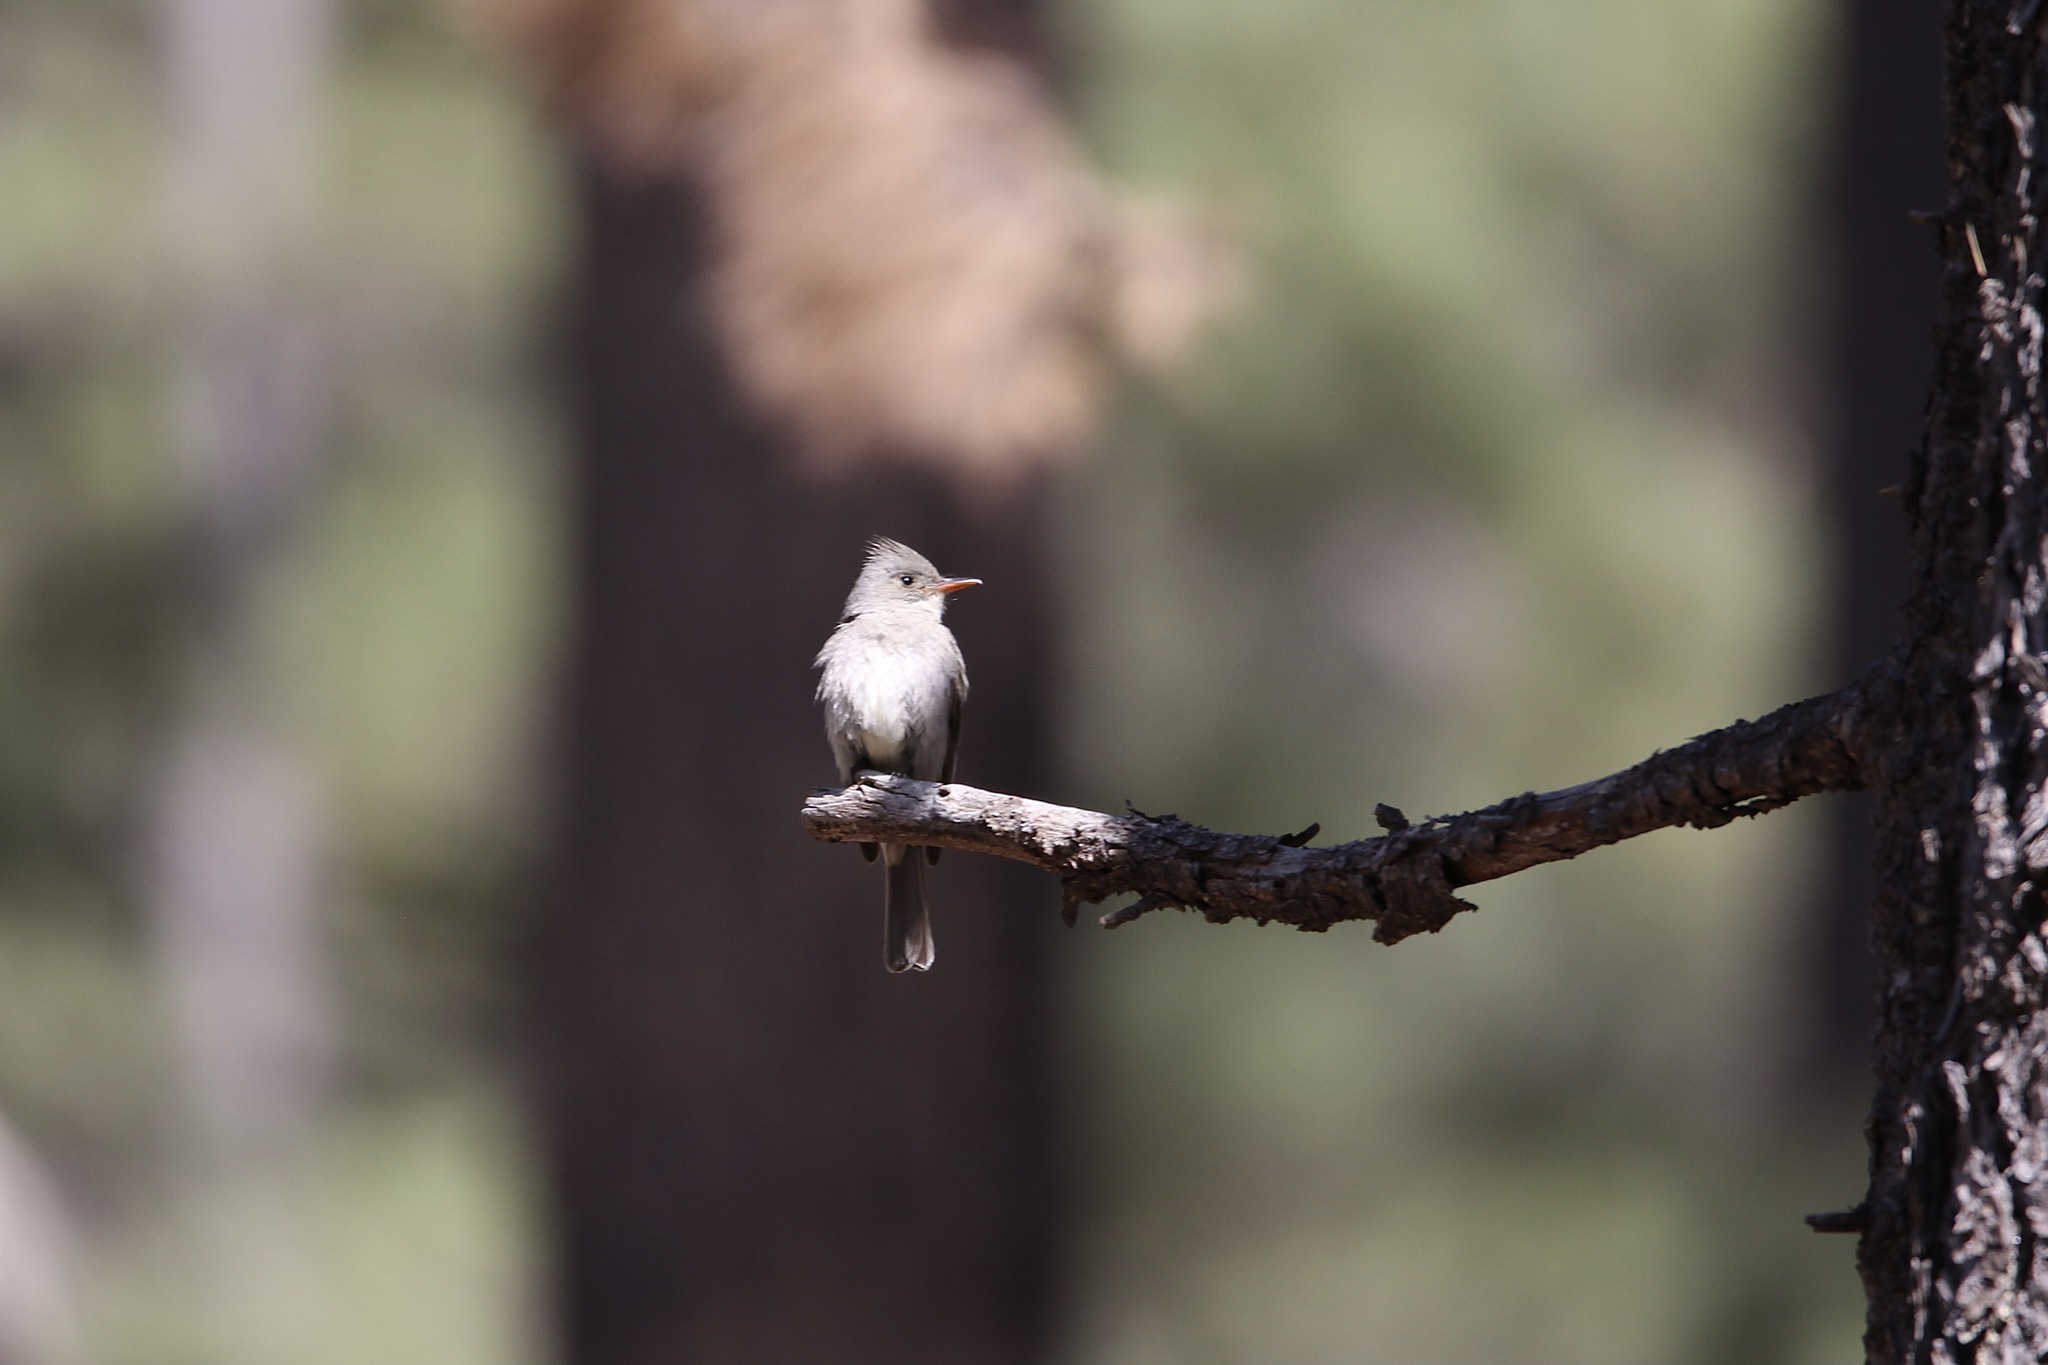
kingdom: Animalia
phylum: Chordata
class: Aves
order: Passeriformes
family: Tyrannidae
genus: Contopus
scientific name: Contopus pertinax
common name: Greater pewee
